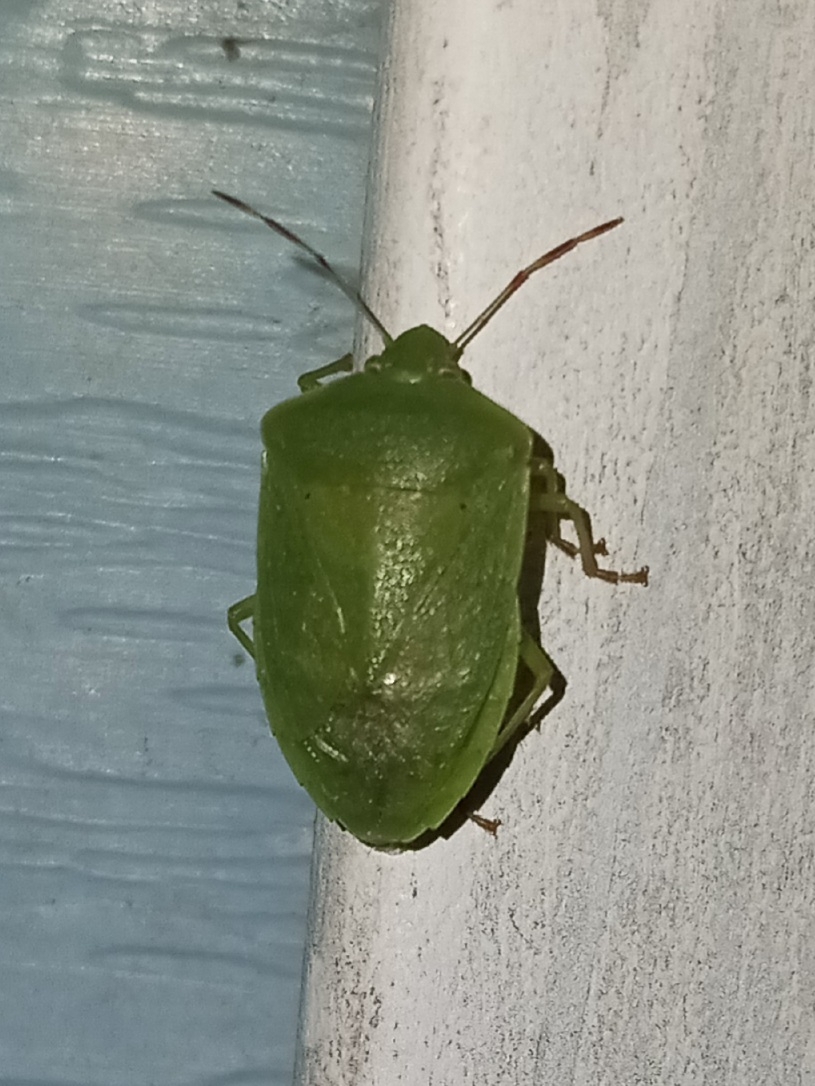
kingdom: Animalia
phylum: Arthropoda
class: Insecta
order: Hemiptera
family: Pentatomidae
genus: Nezara
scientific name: Nezara viridula
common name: Southern green stink bug
